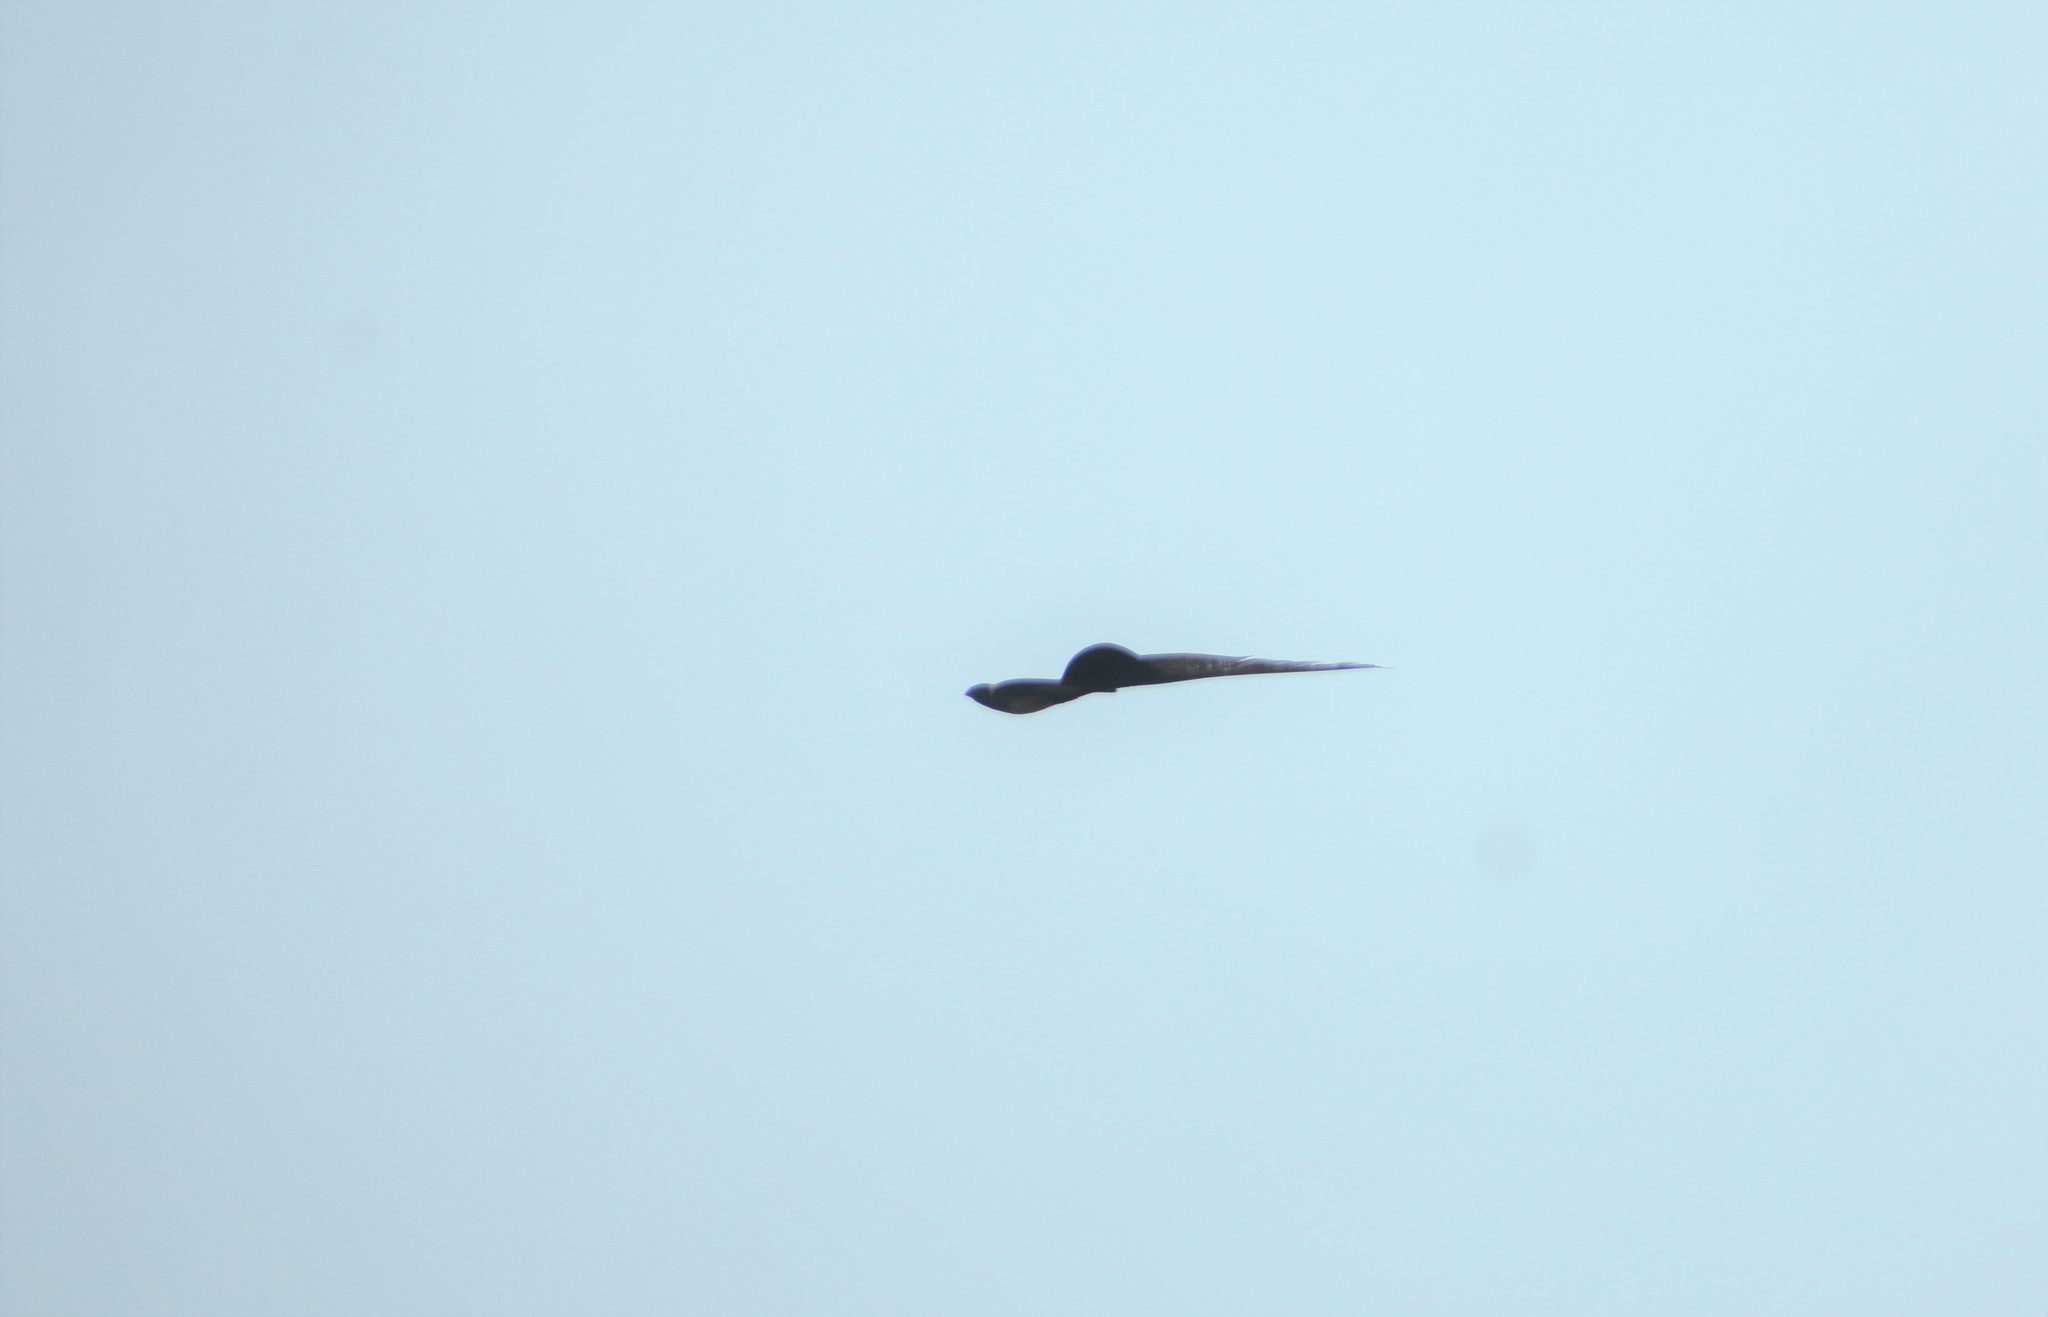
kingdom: Animalia
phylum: Chordata
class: Aves
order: Passeriformes
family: Viduidae
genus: Vidua
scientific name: Vidua paradisaea
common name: Long-tailed paradise whydah
